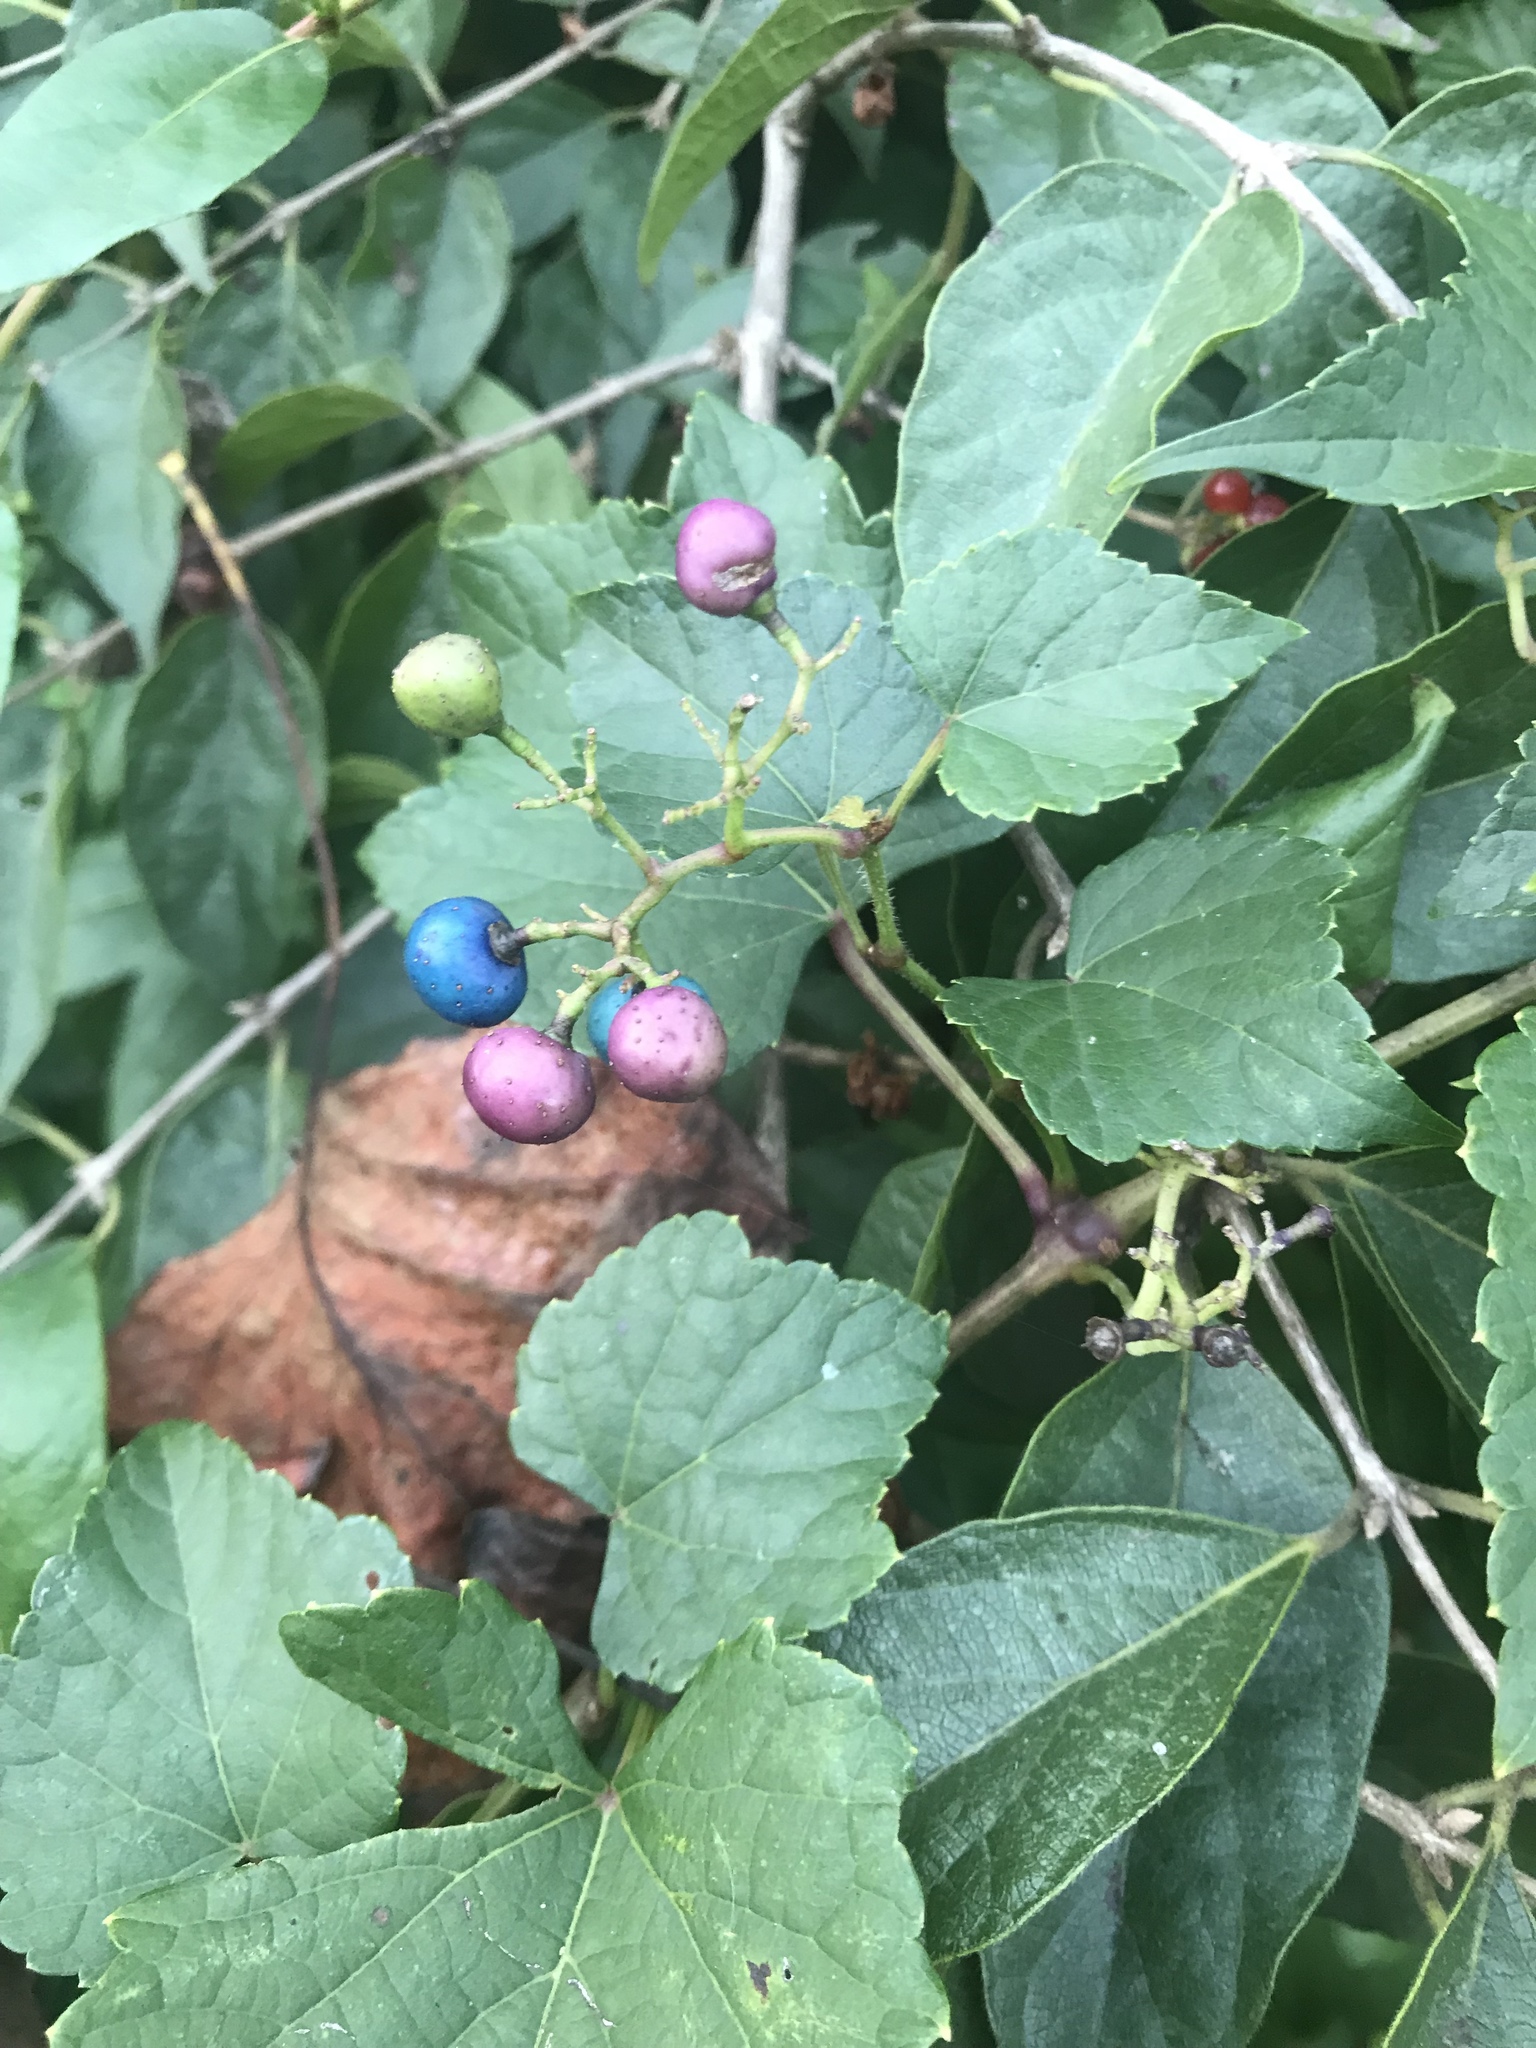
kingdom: Plantae
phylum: Tracheophyta
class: Magnoliopsida
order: Vitales
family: Vitaceae
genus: Ampelopsis
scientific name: Ampelopsis glandulosa
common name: Amur peppervine
